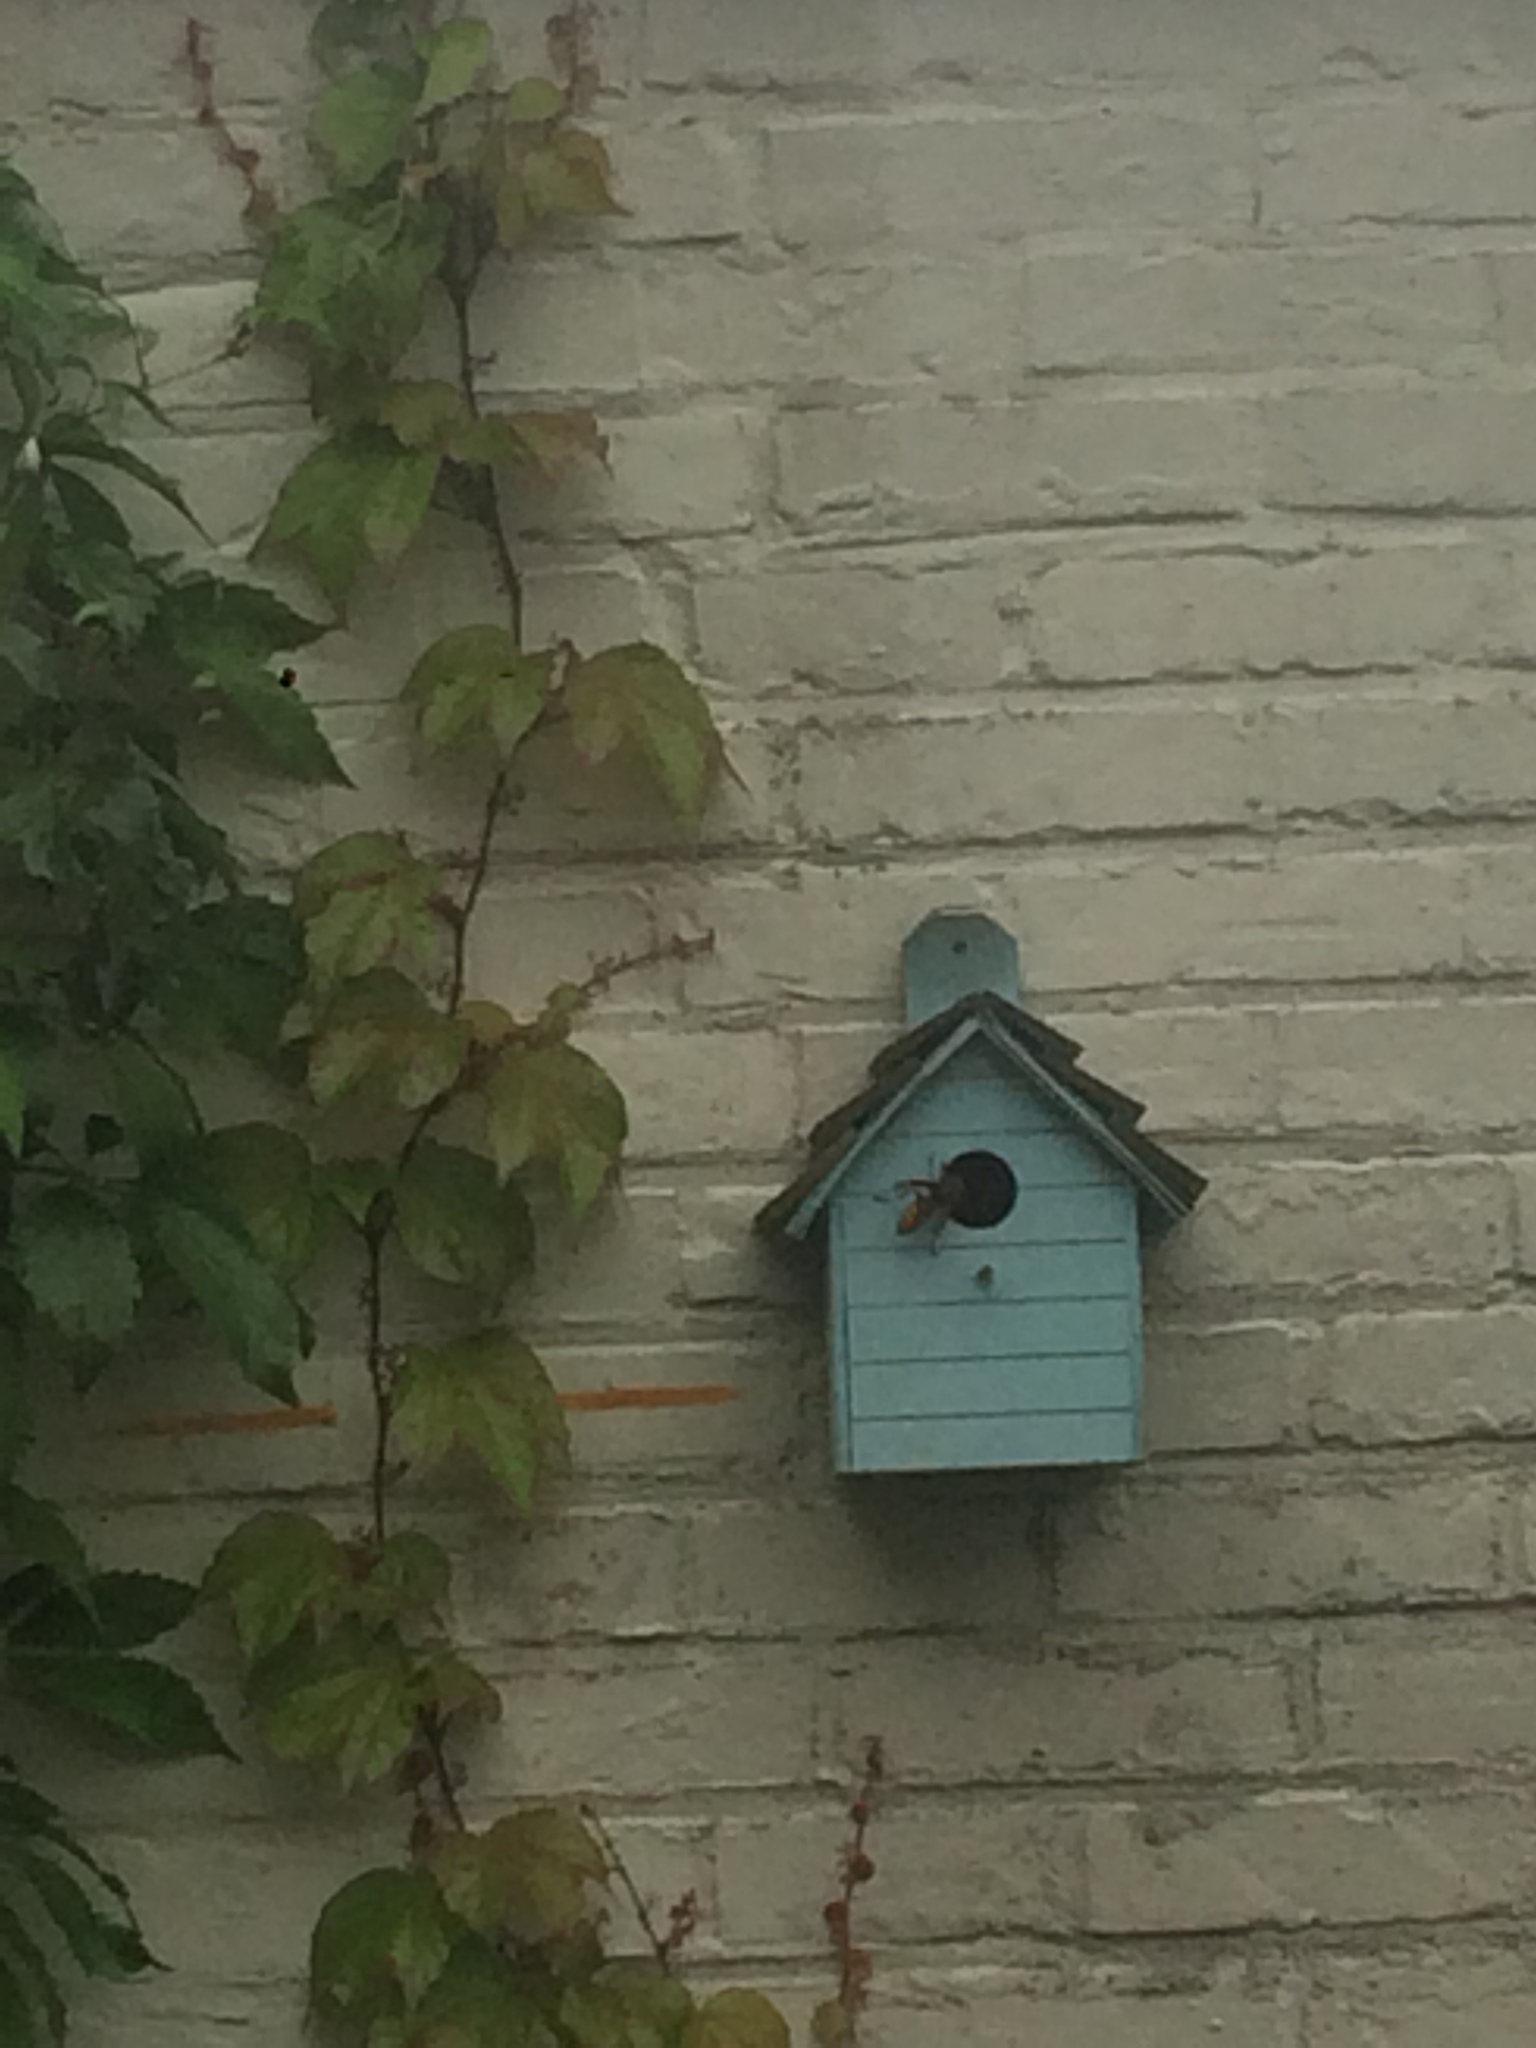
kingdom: Animalia
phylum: Arthropoda
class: Insecta
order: Hymenoptera
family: Vespidae
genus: Vespa
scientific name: Vespa crabro
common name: Hornet
